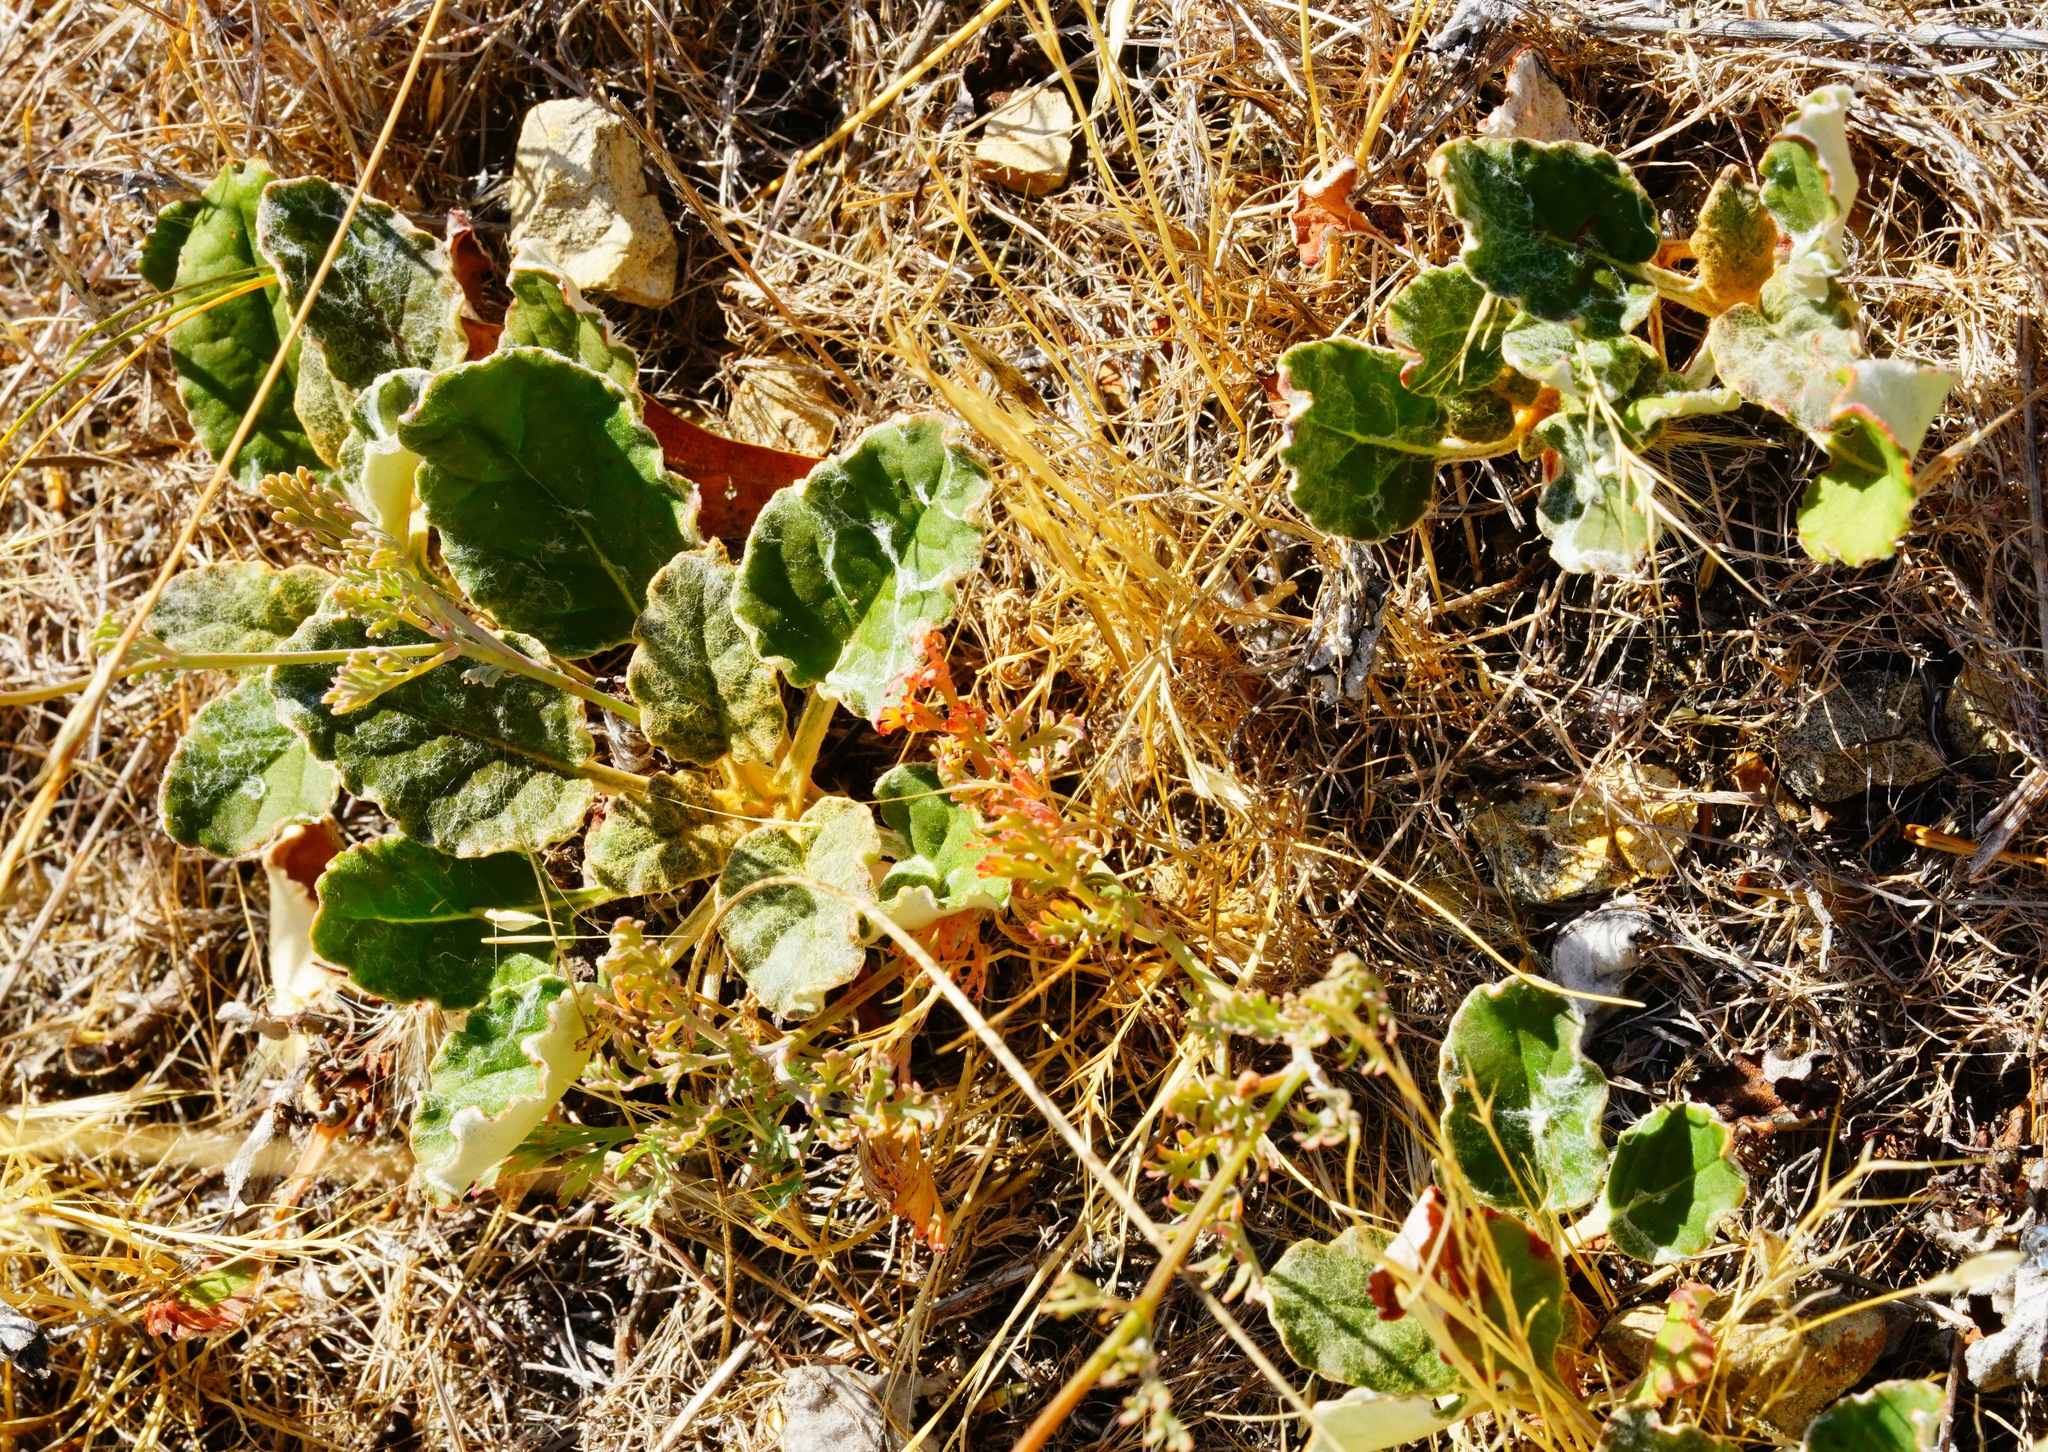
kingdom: Plantae
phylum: Tracheophyta
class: Magnoliopsida
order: Caryophyllales
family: Polygonaceae
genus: Eriogonum
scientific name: Eriogonum nudum
